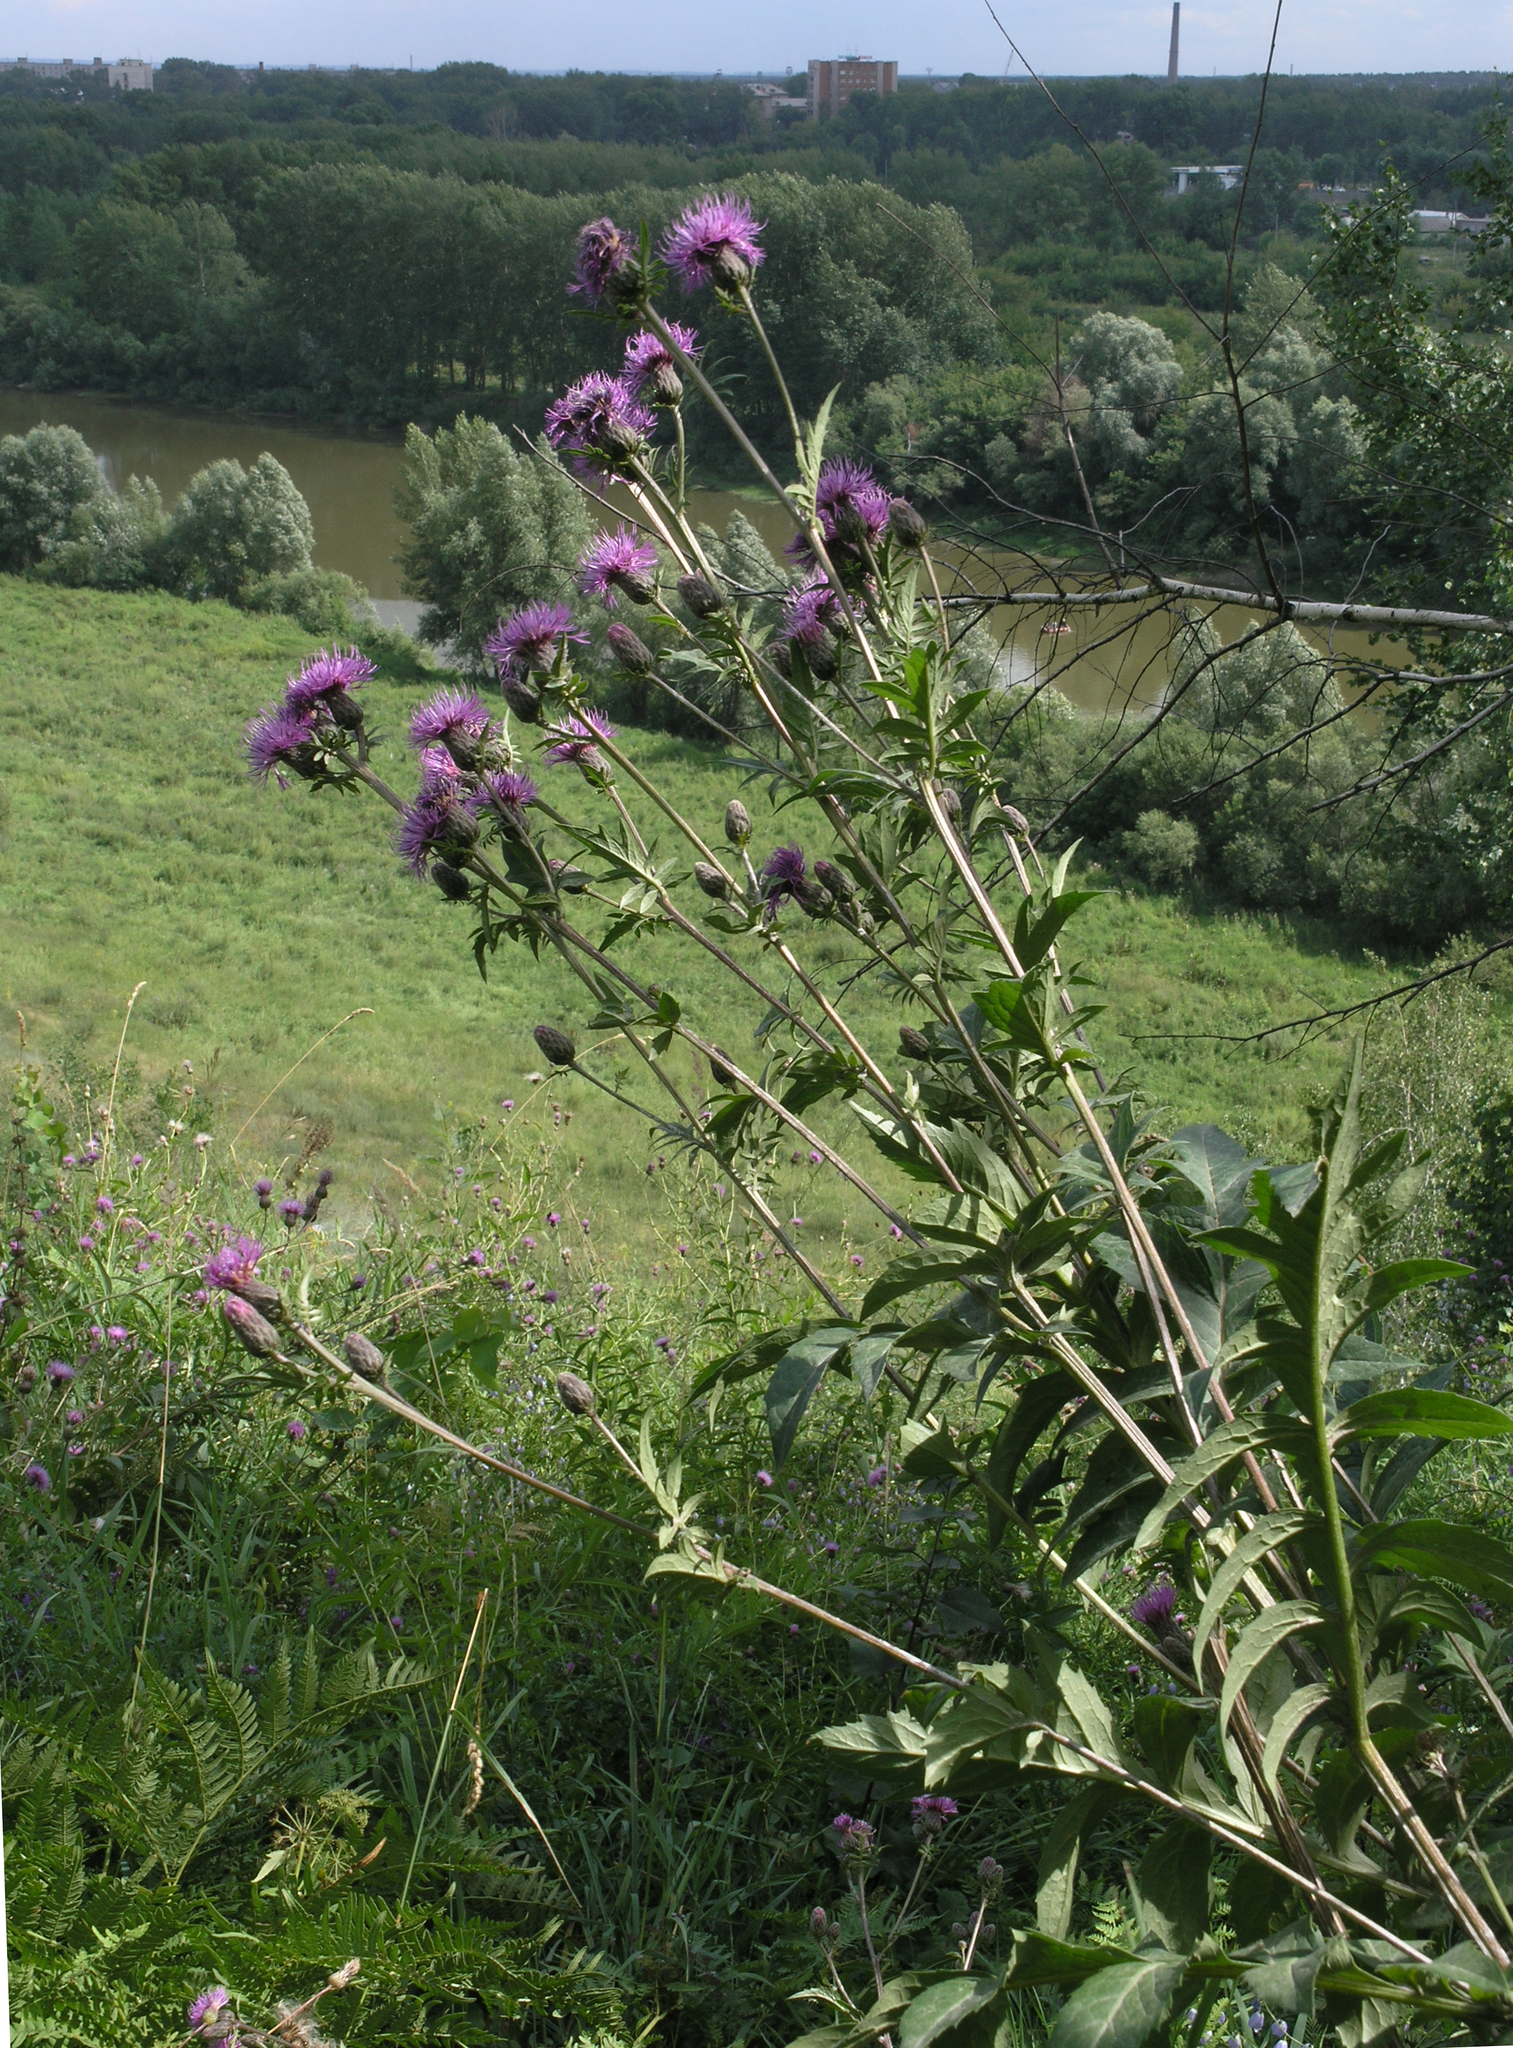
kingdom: Plantae
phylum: Tracheophyta
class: Magnoliopsida
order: Asterales
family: Asteraceae
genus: Serratula
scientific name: Serratula coronata
